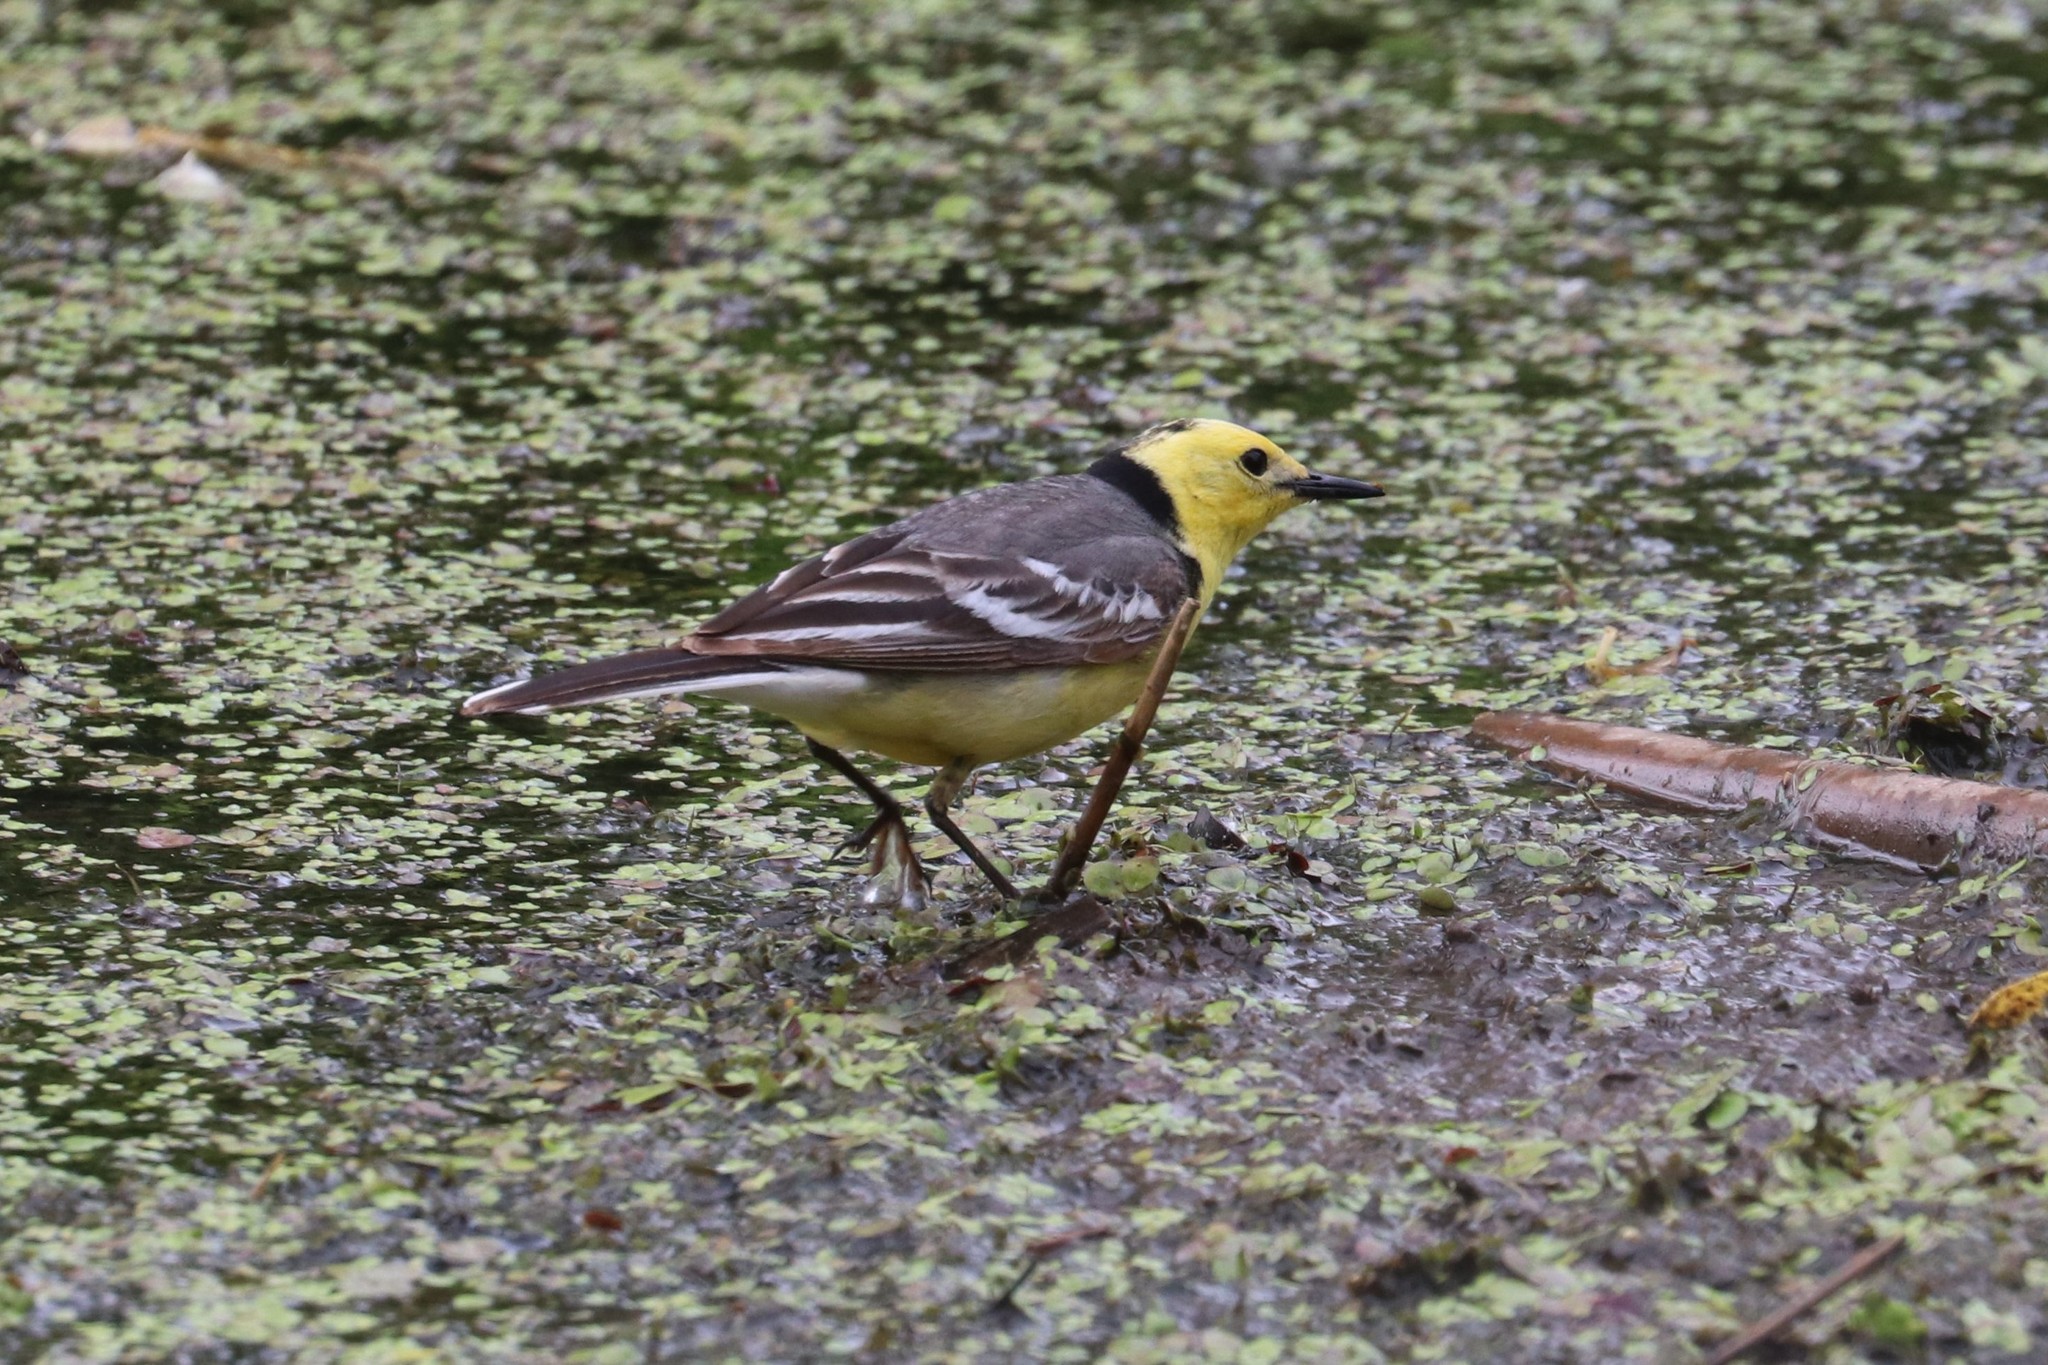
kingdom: Animalia
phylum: Chordata
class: Aves
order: Passeriformes
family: Motacillidae
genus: Motacilla
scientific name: Motacilla citreola
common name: Citrine wagtail
